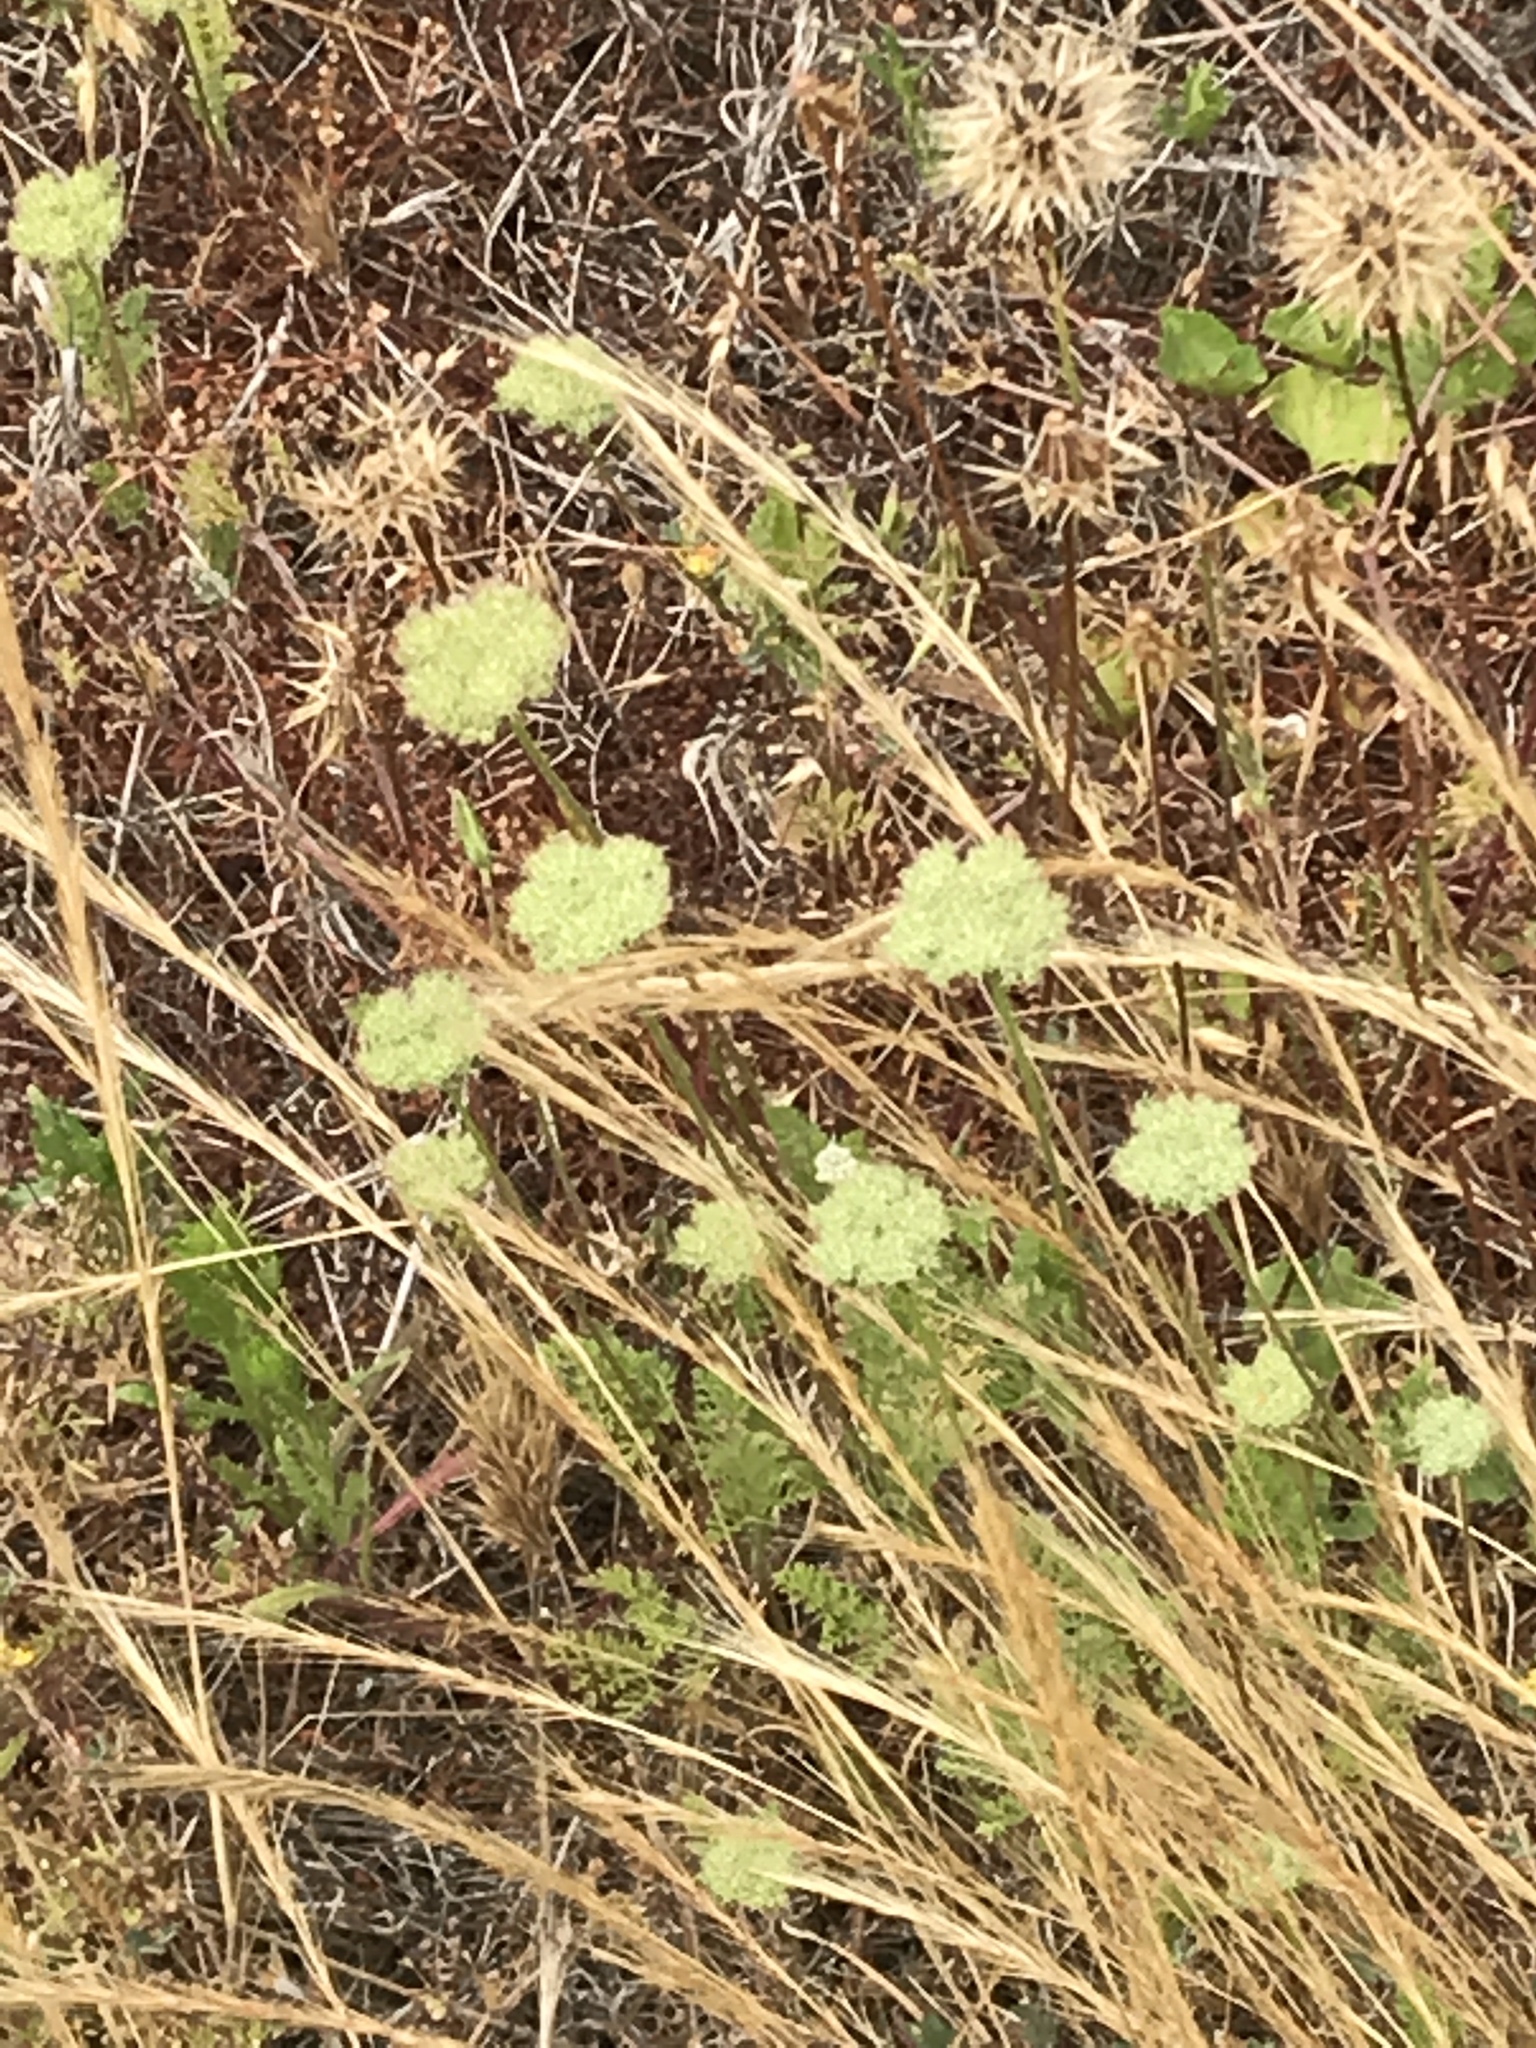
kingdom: Plantae
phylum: Tracheophyta
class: Magnoliopsida
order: Apiales
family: Apiaceae
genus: Daucus
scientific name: Daucus pusillus
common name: Southwest wild carrot
